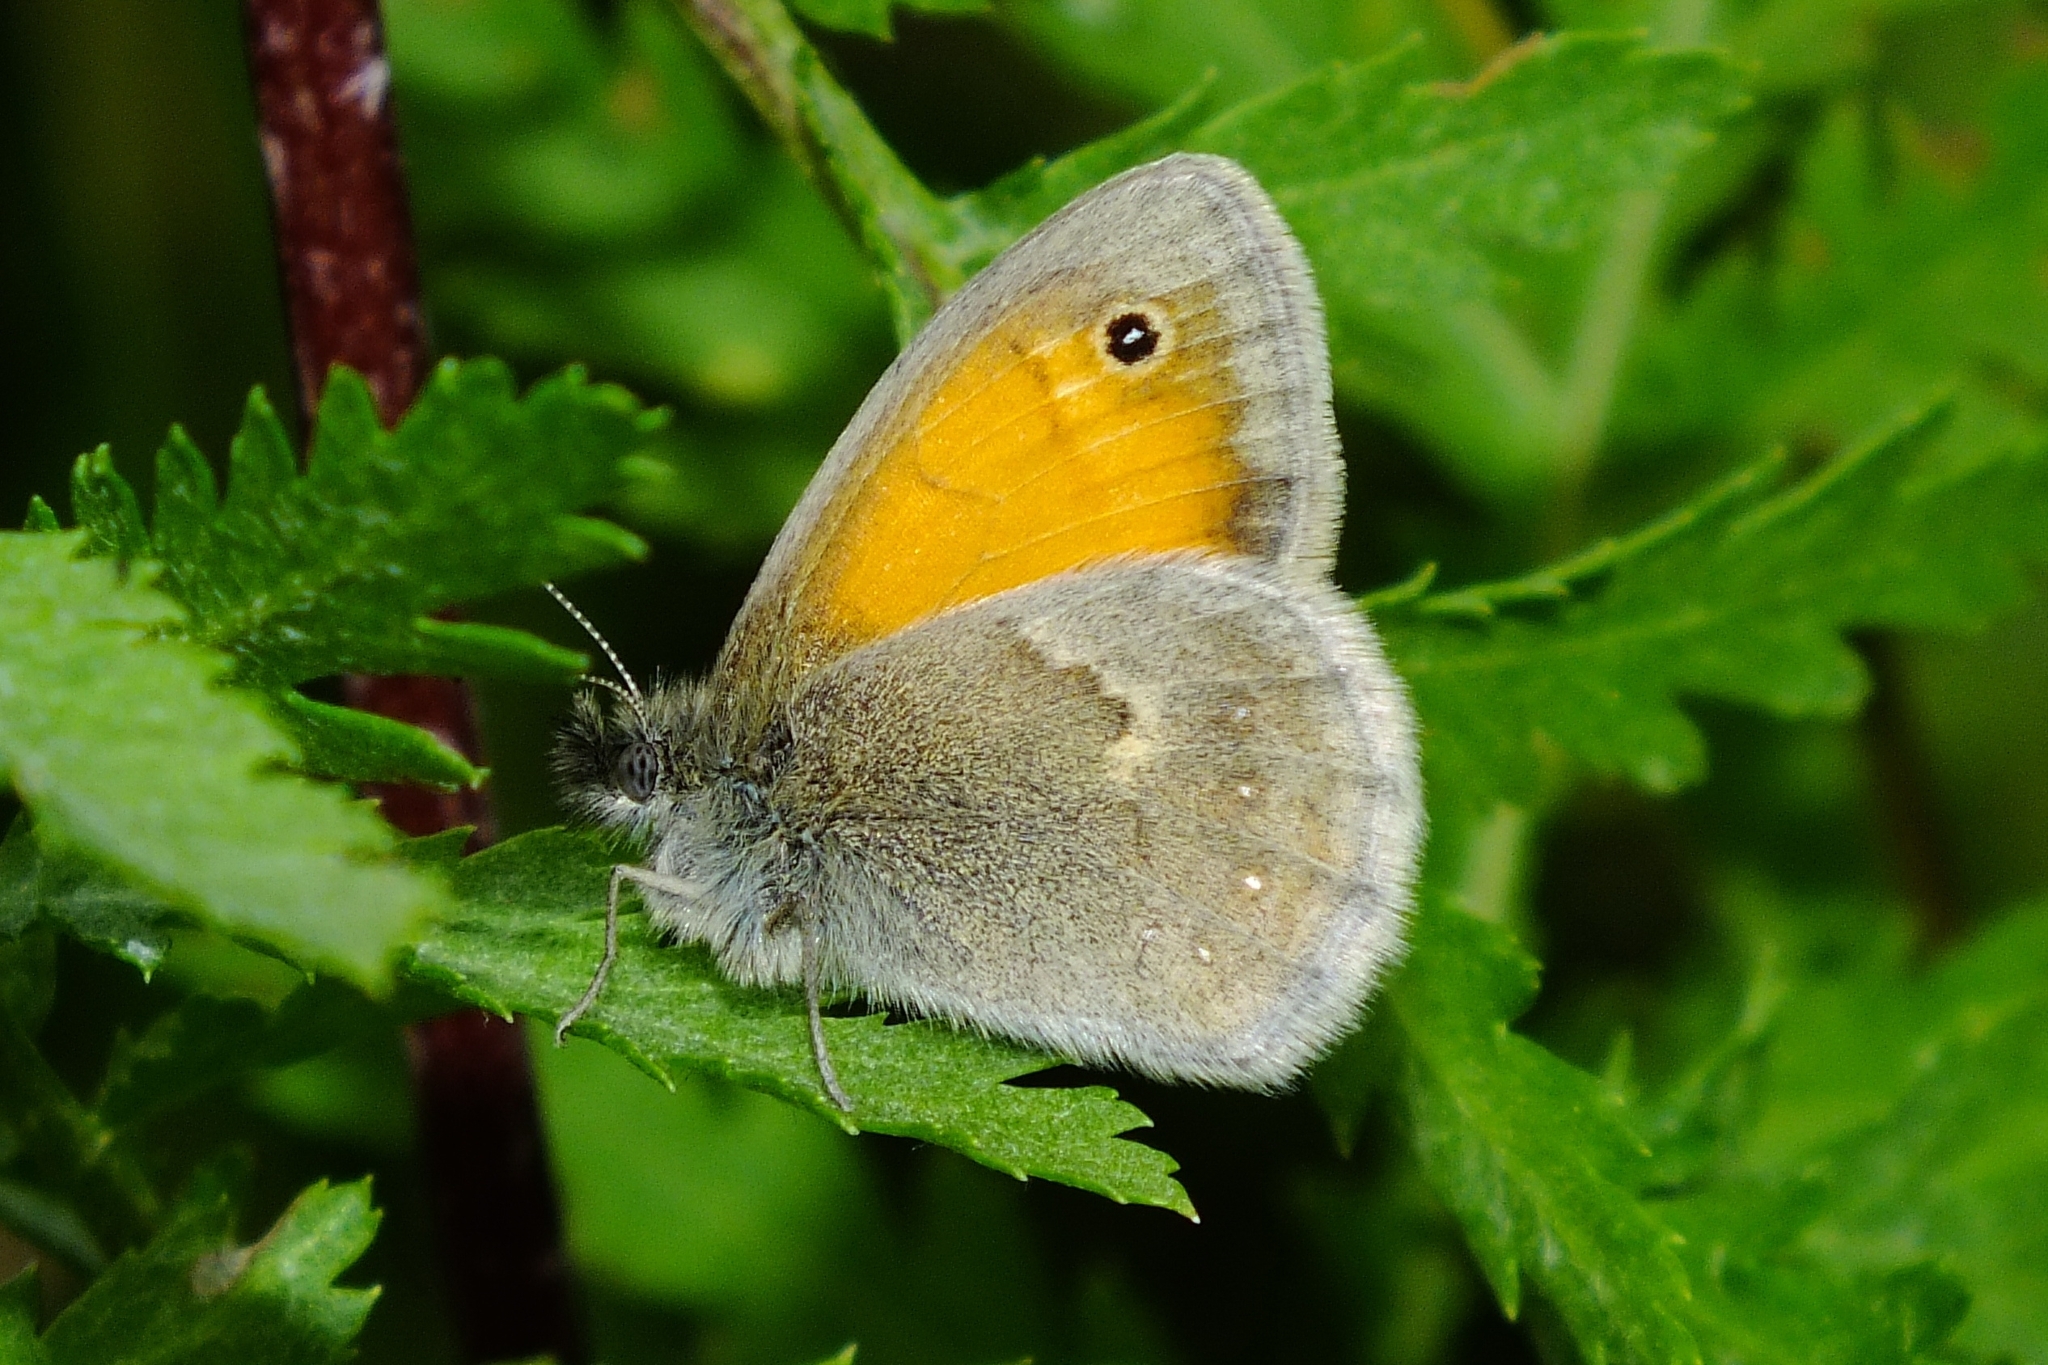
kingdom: Animalia
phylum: Arthropoda
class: Insecta
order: Lepidoptera
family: Nymphalidae
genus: Coenonympha
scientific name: Coenonympha pamphilus
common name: Small heath
